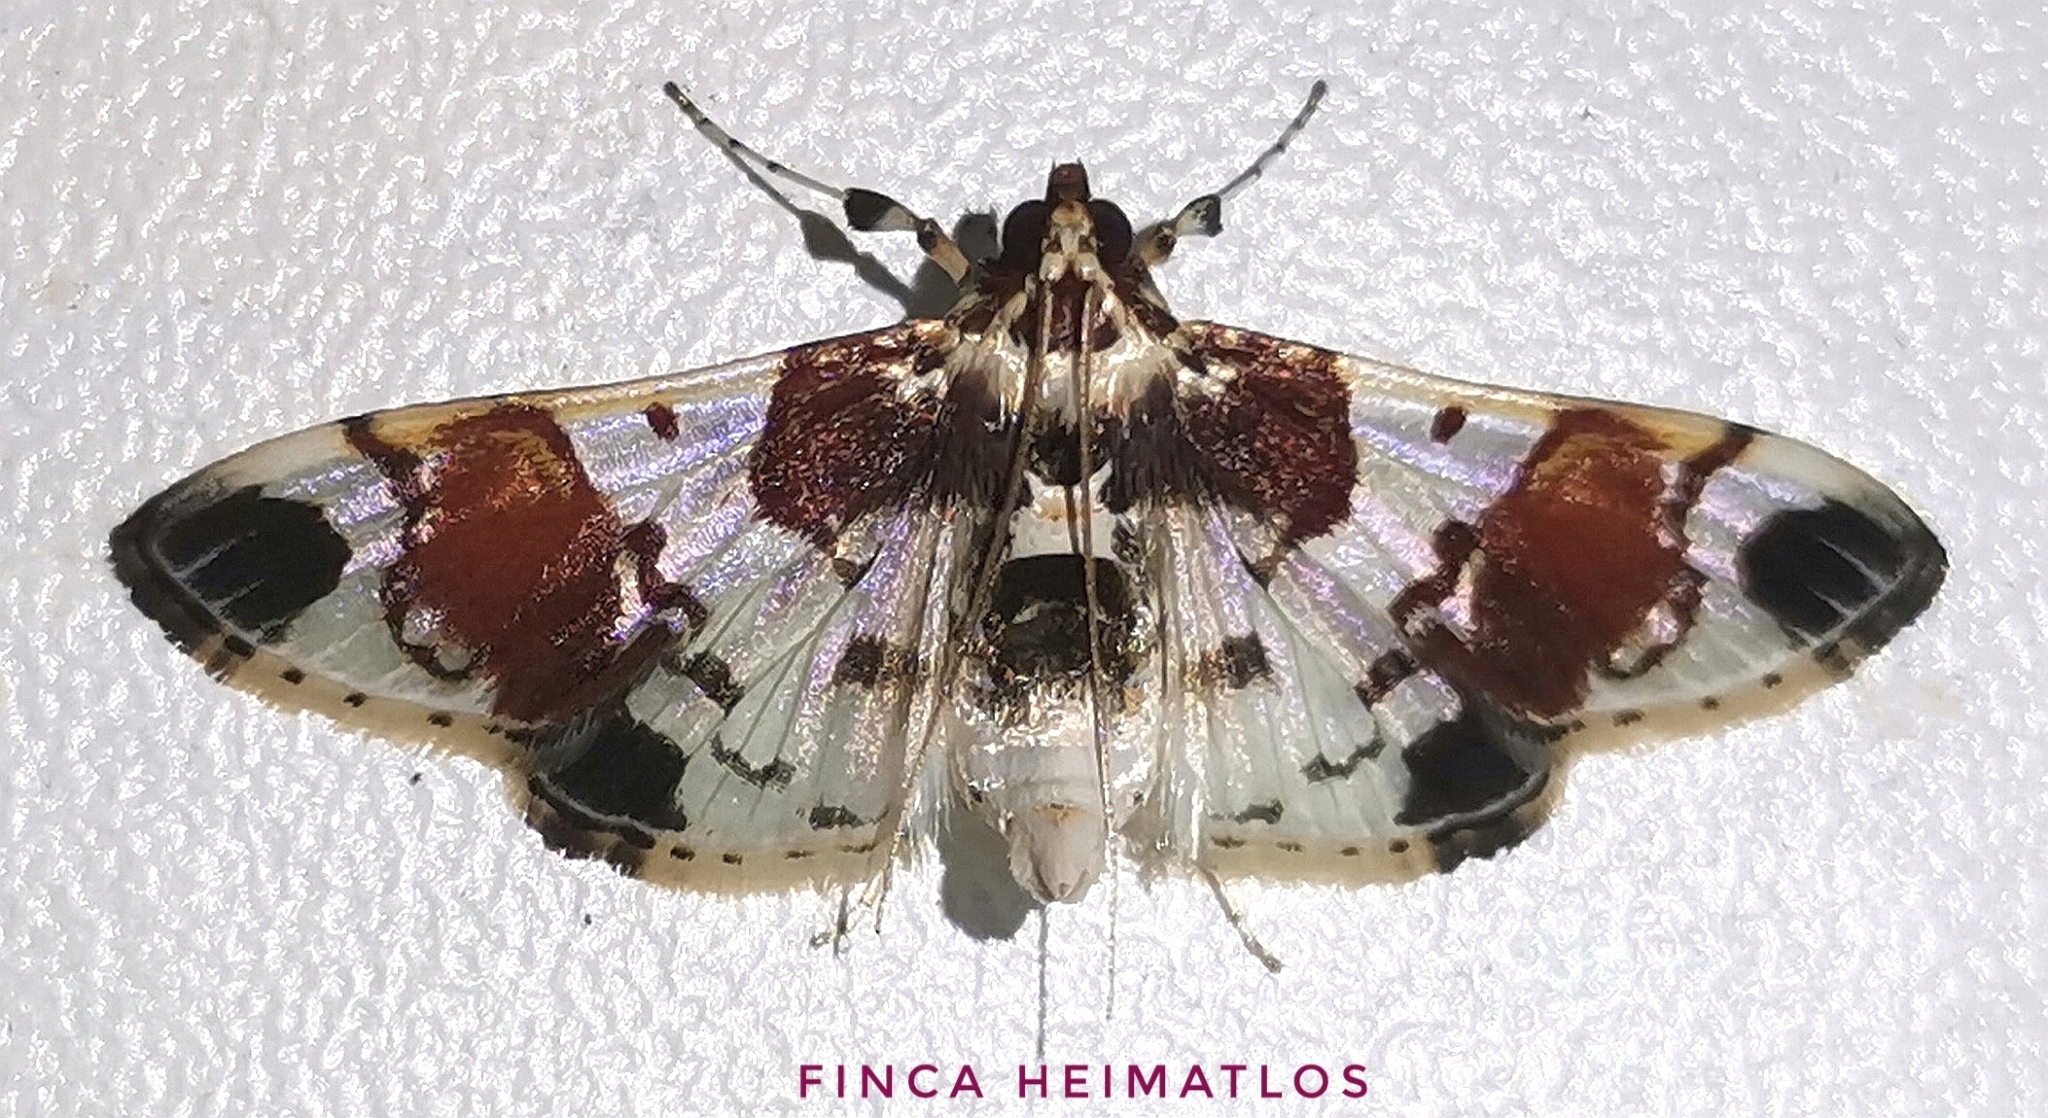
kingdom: Animalia
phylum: Arthropoda
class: Insecta
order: Lepidoptera
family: Crambidae
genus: Syngamilyta
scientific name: Syngamilyta
